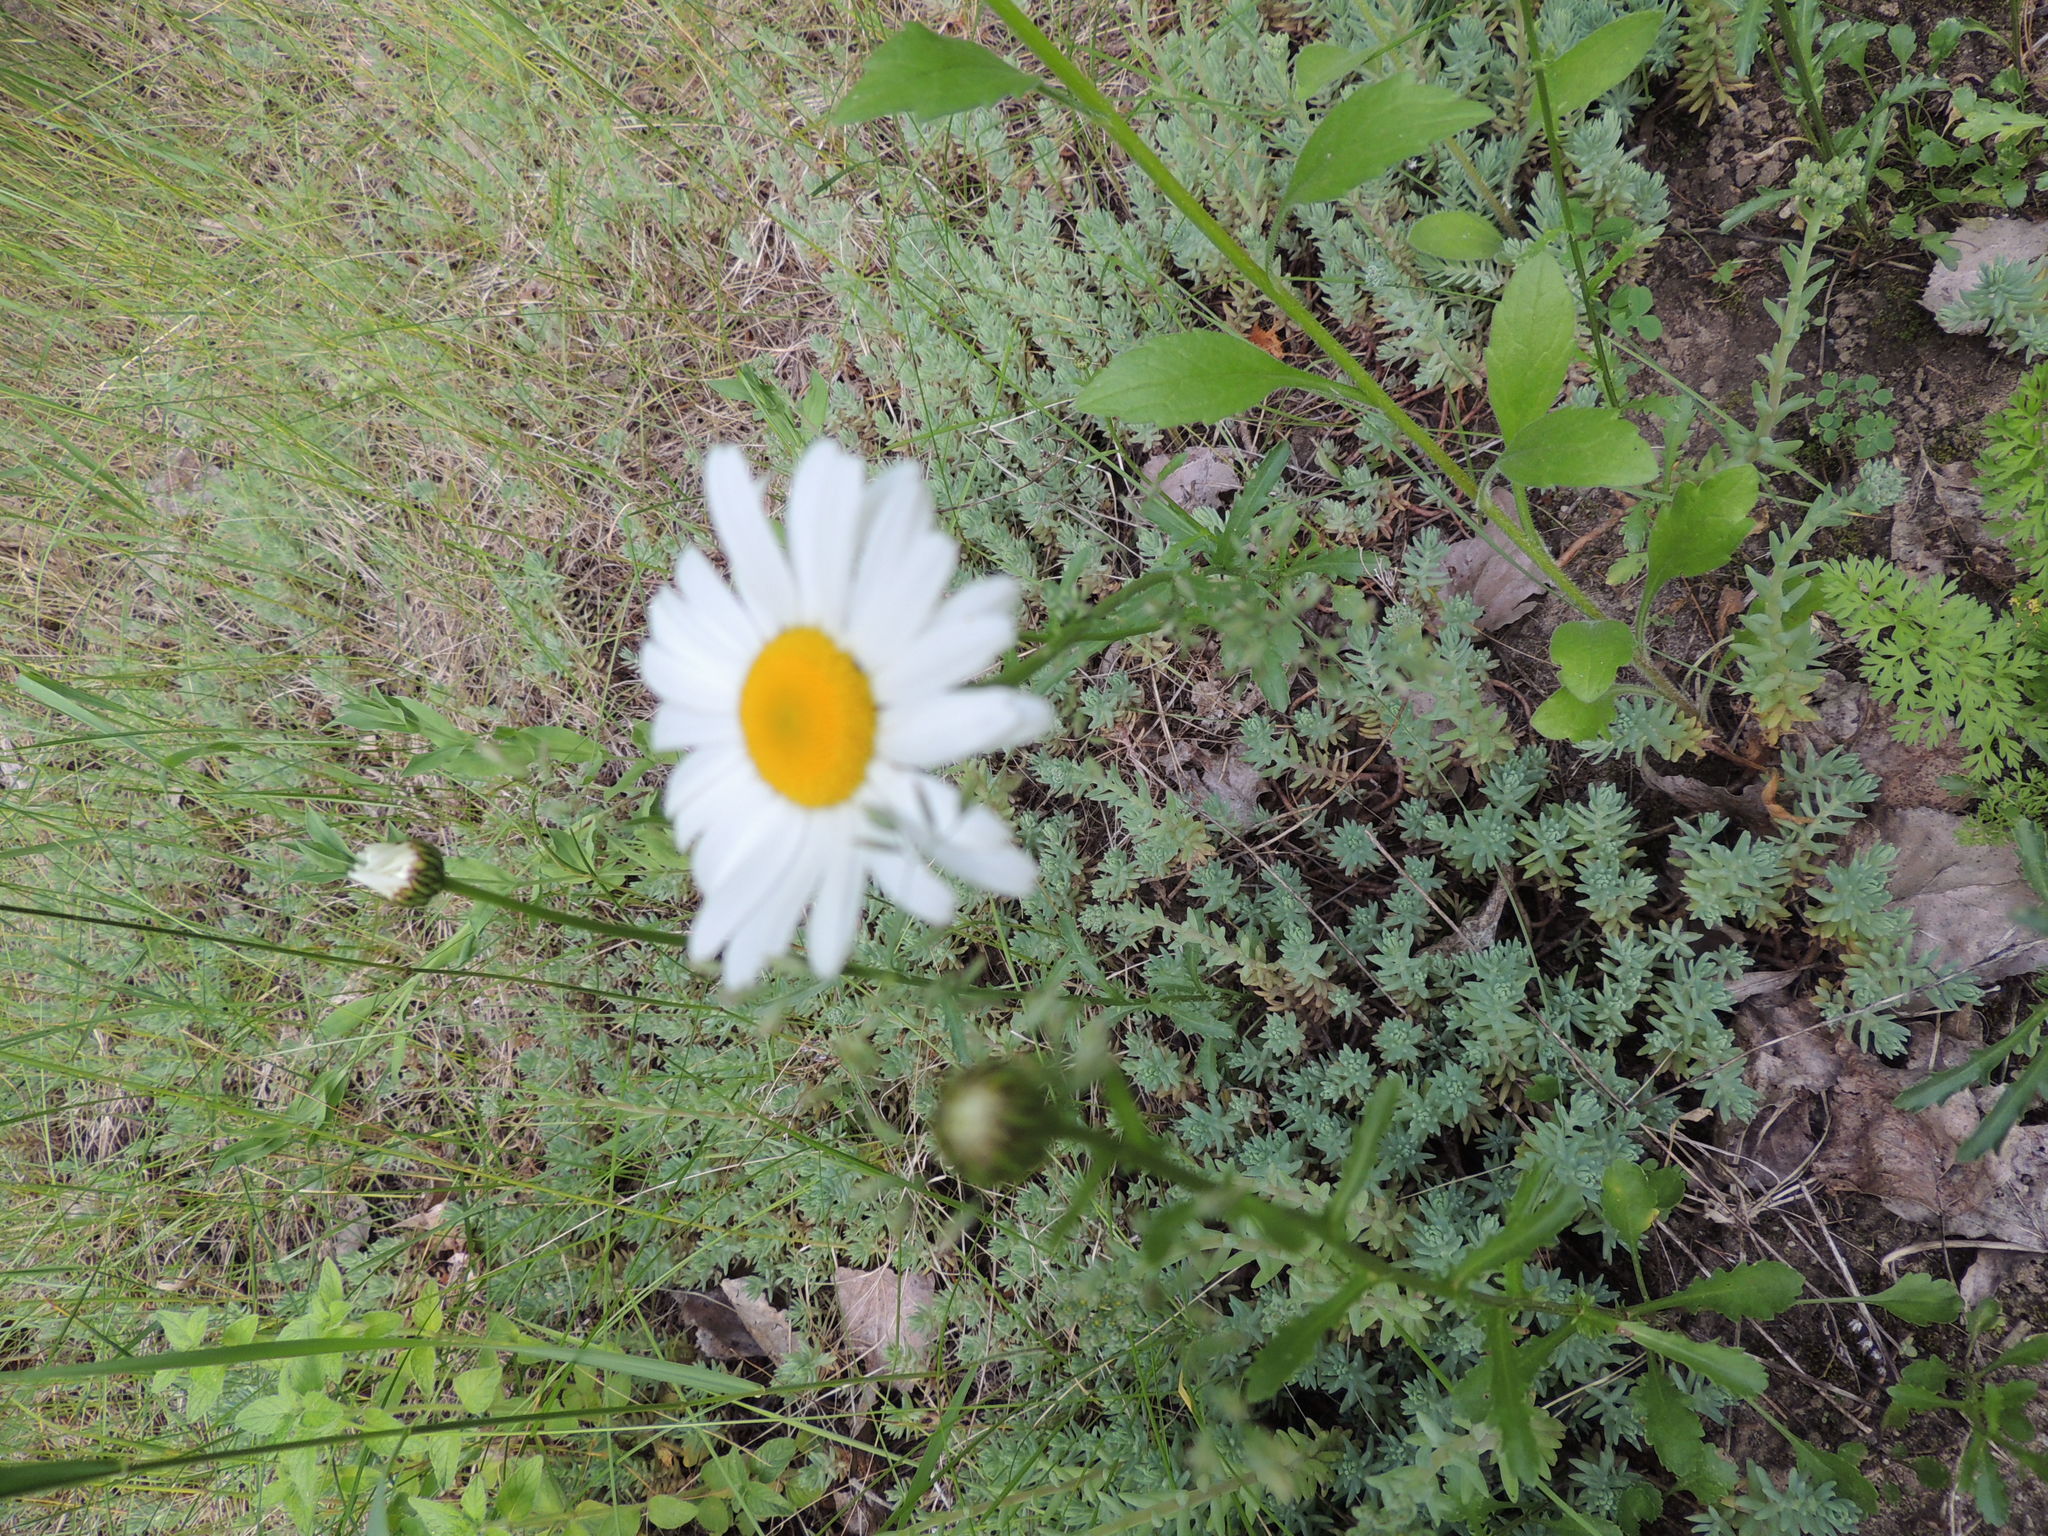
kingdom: Plantae
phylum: Tracheophyta
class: Magnoliopsida
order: Asterales
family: Asteraceae
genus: Leucanthemum
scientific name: Leucanthemum vulgare
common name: Oxeye daisy
